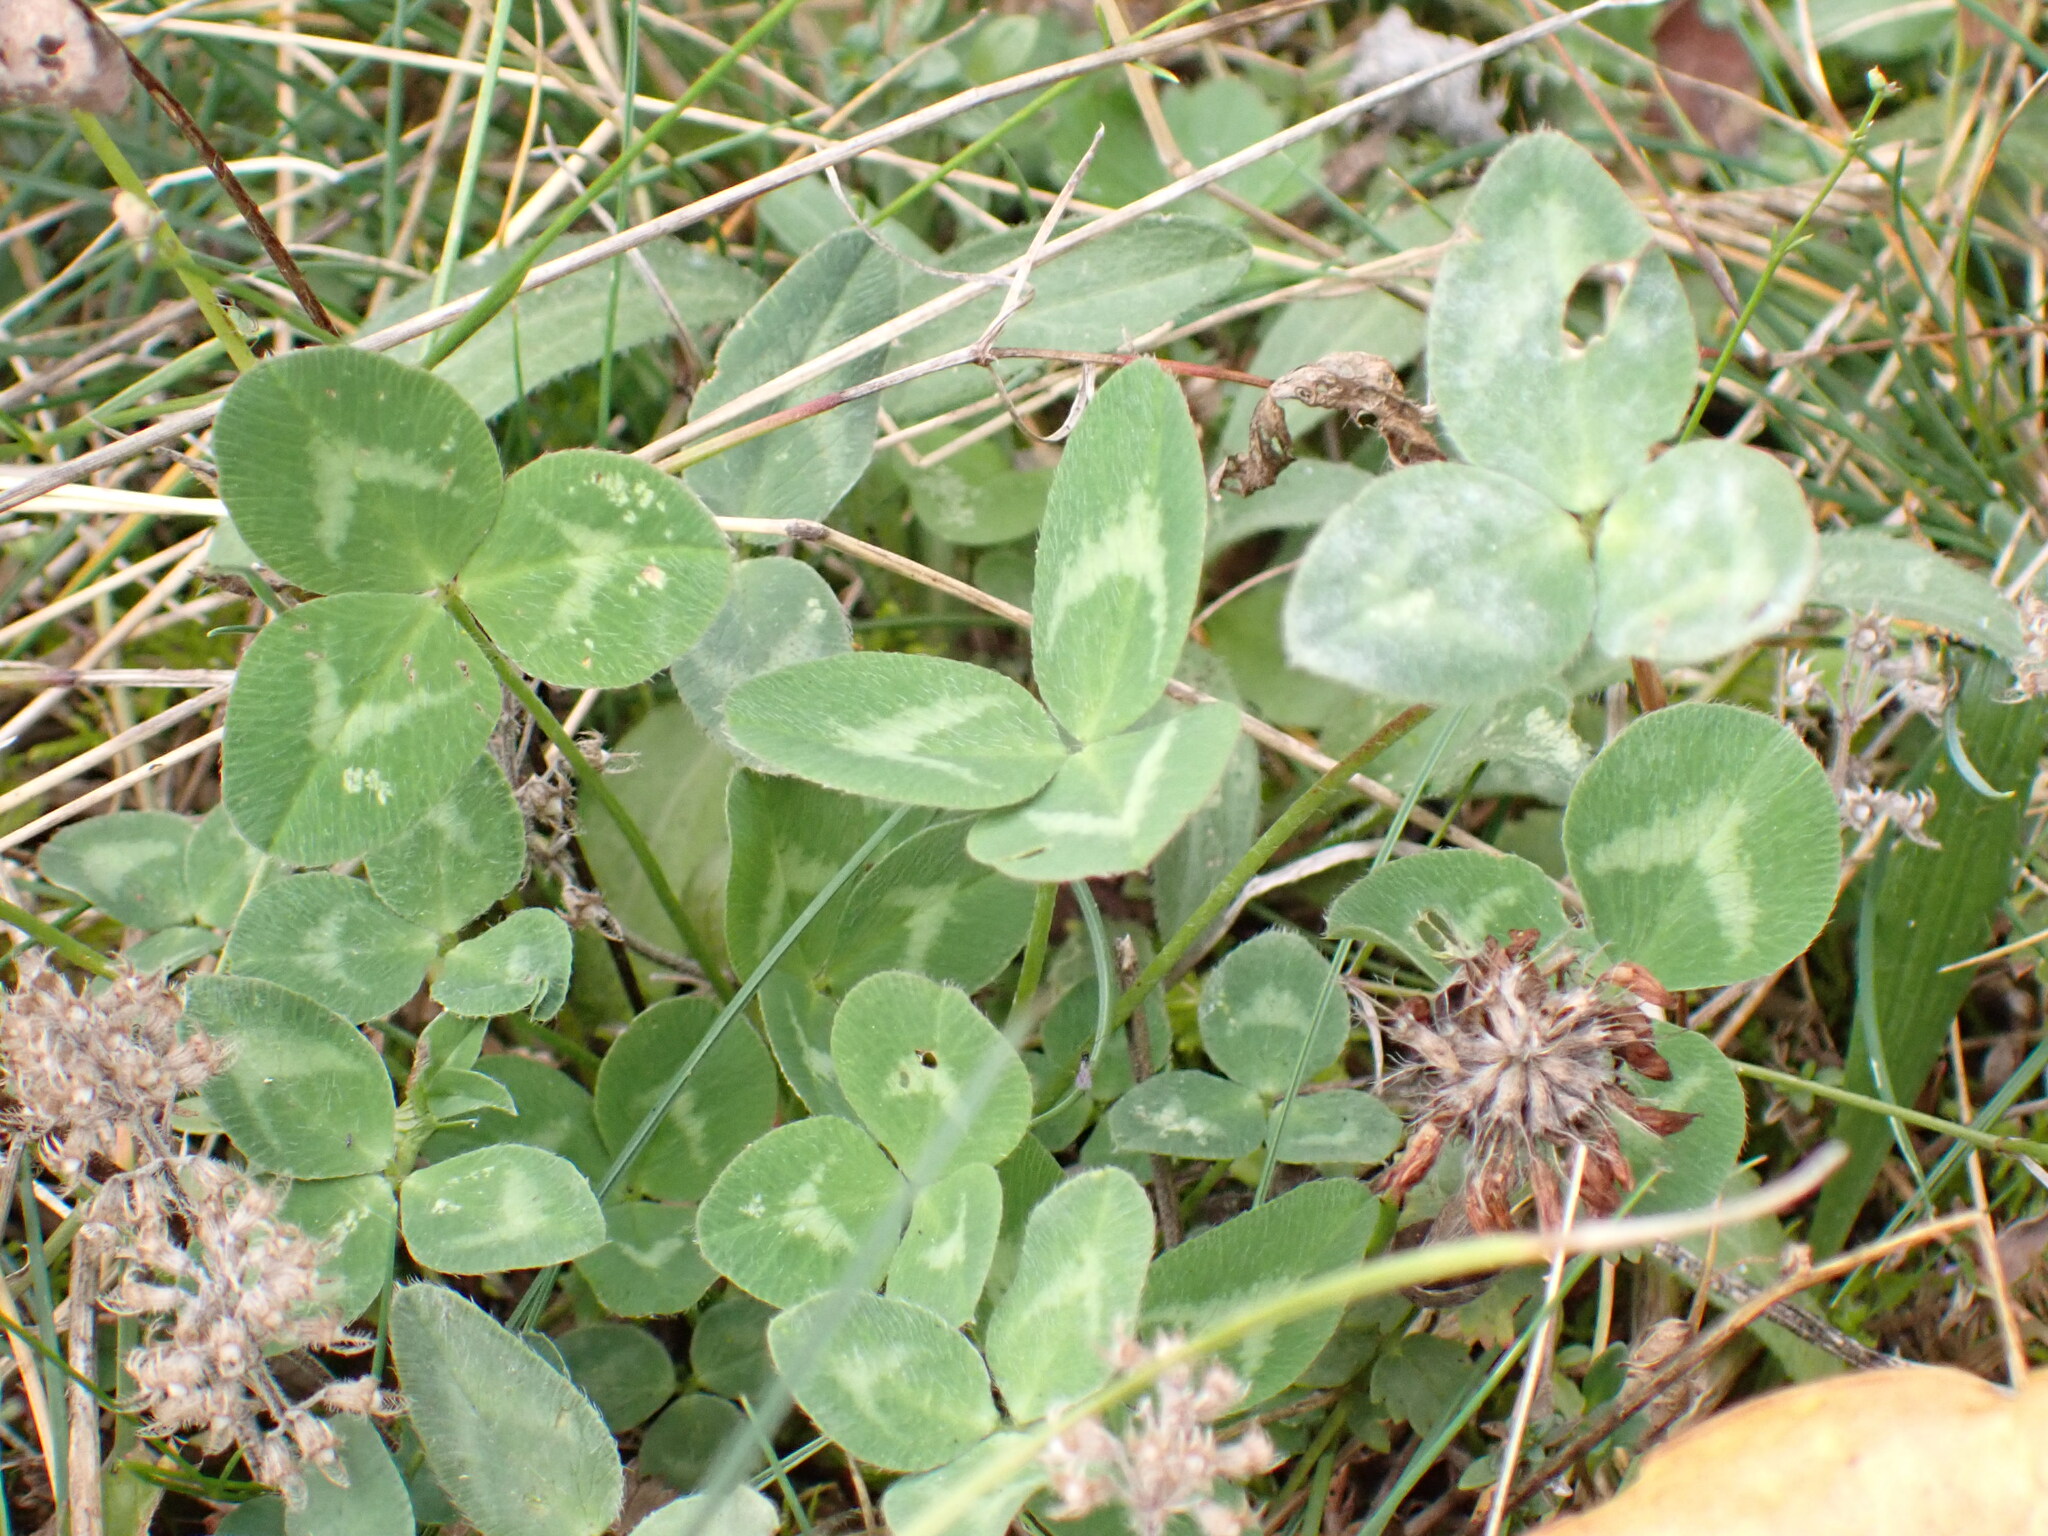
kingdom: Plantae
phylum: Tracheophyta
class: Magnoliopsida
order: Fabales
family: Fabaceae
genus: Trifolium
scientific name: Trifolium pratense
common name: Red clover
